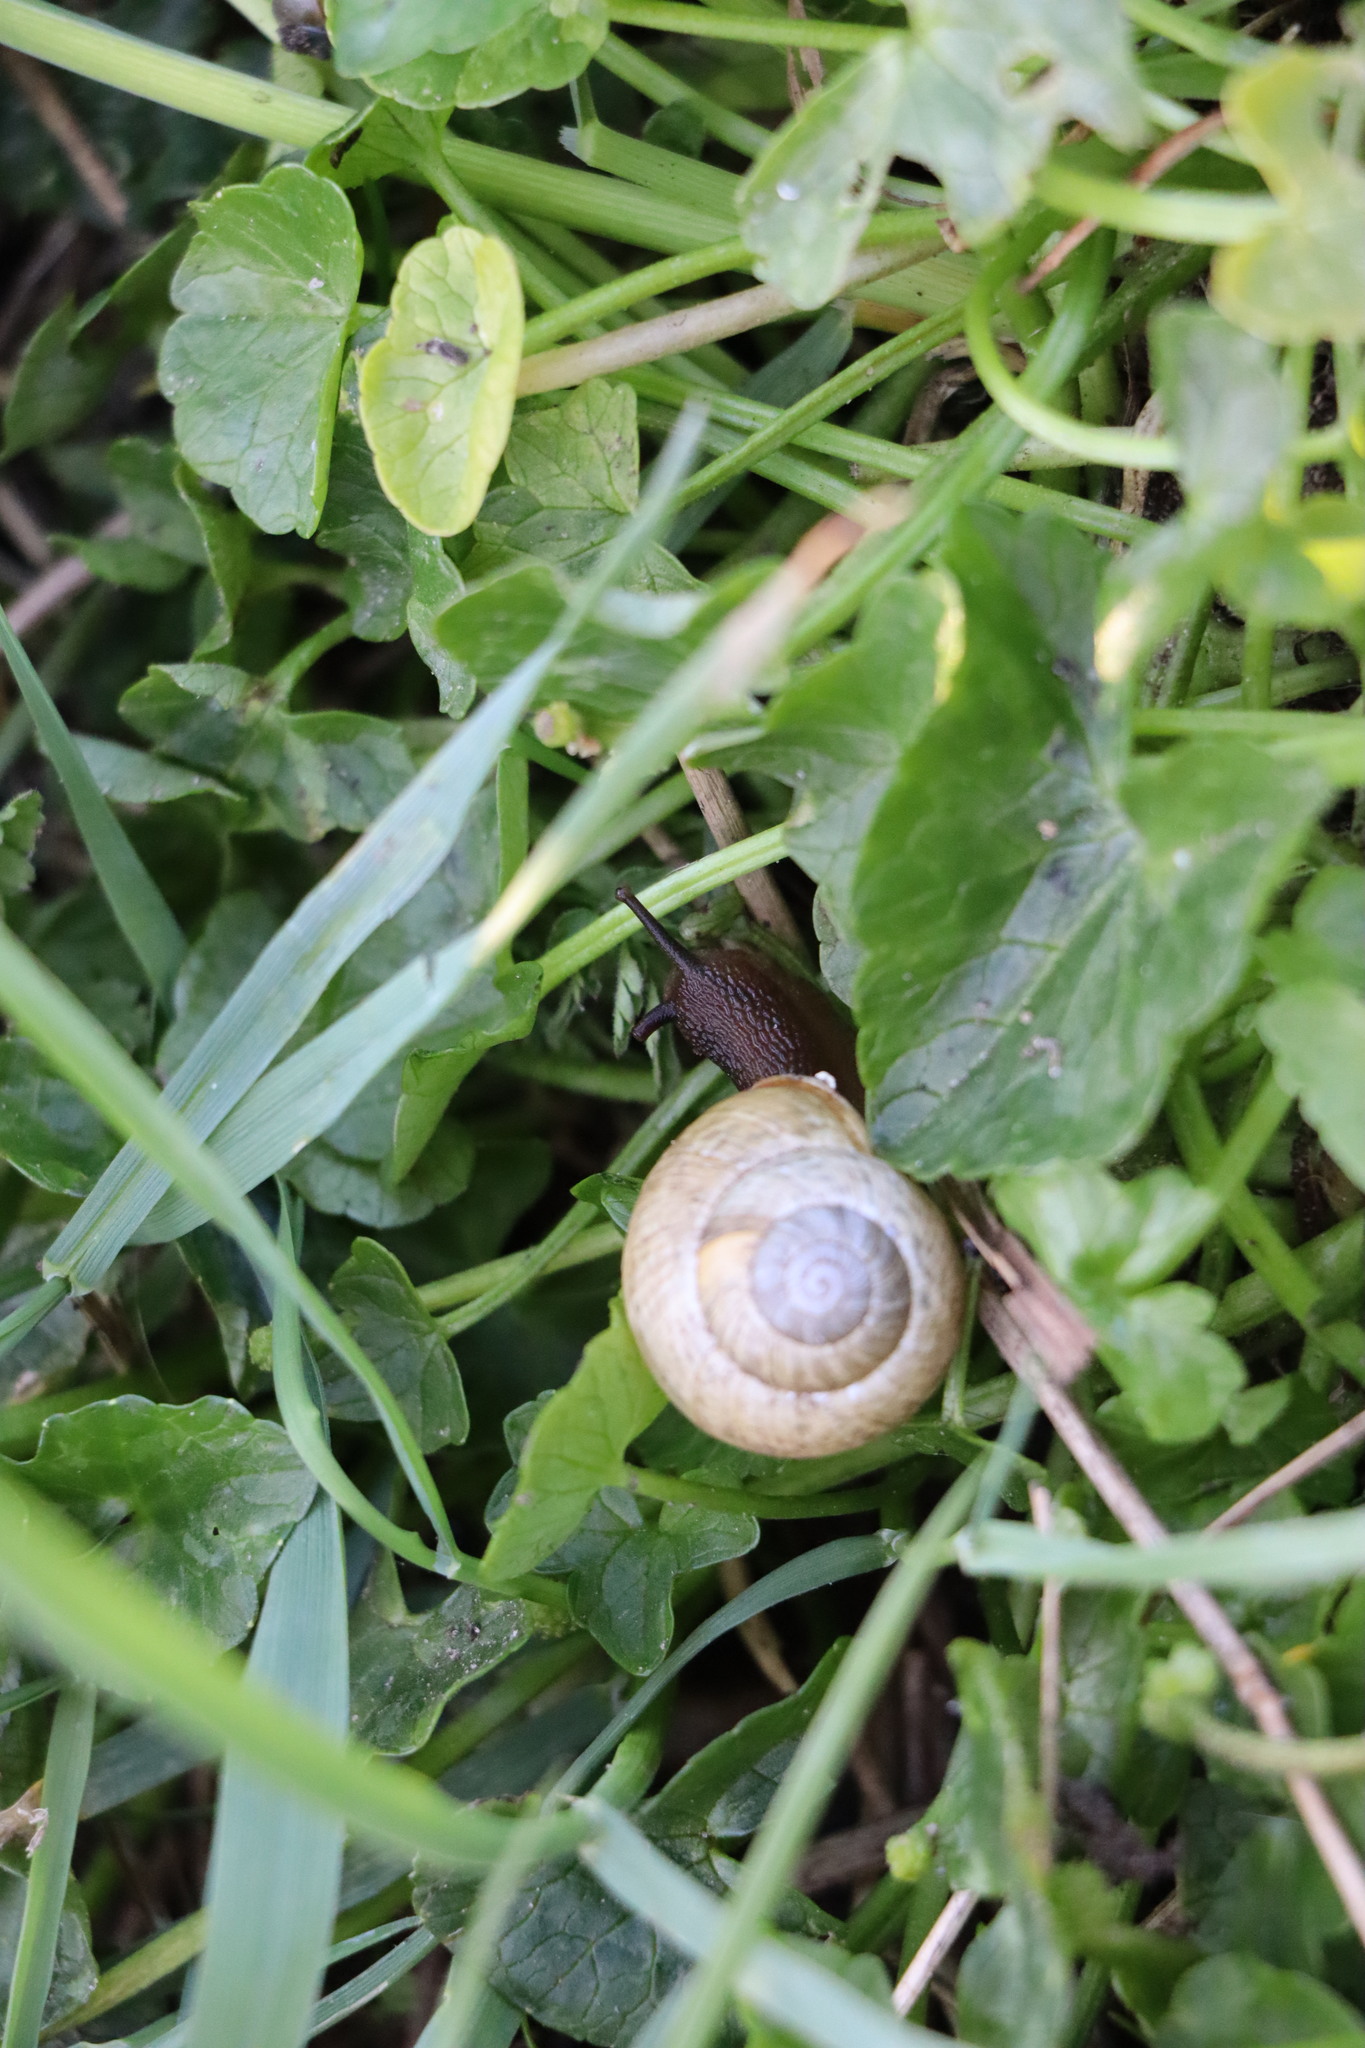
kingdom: Animalia
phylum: Mollusca
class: Gastropoda
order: Stylommatophora
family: Helicidae
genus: Arianta
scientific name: Arianta arbustorum
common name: Copse snail
